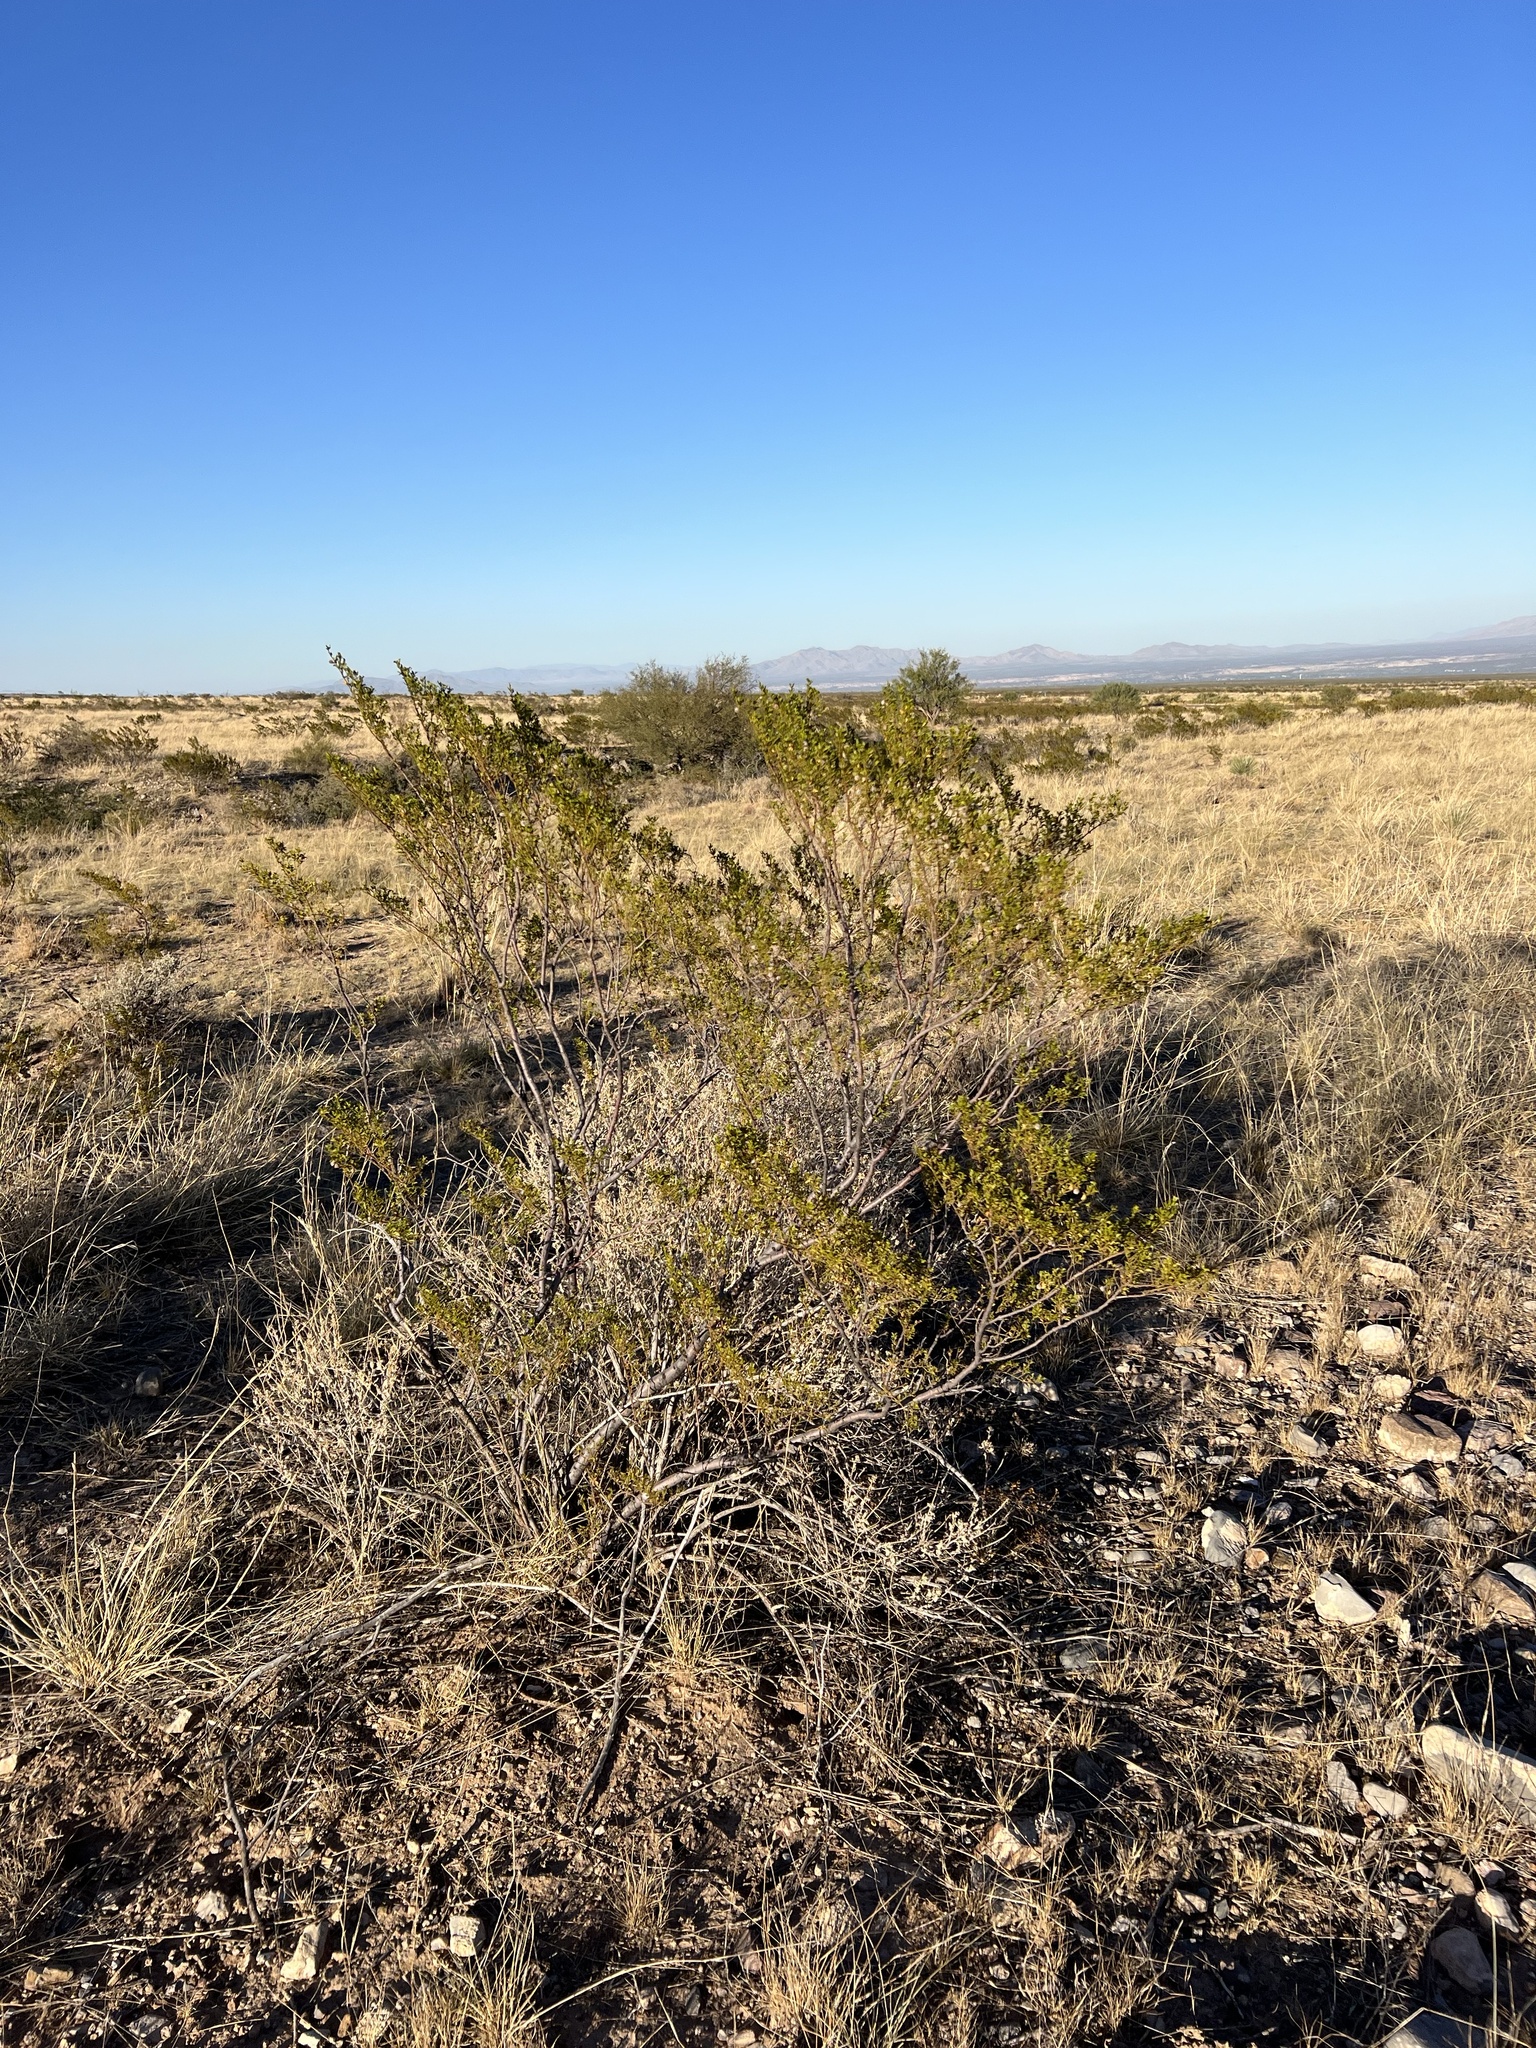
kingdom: Plantae
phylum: Tracheophyta
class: Magnoliopsida
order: Zygophyllales
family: Zygophyllaceae
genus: Larrea
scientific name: Larrea tridentata
